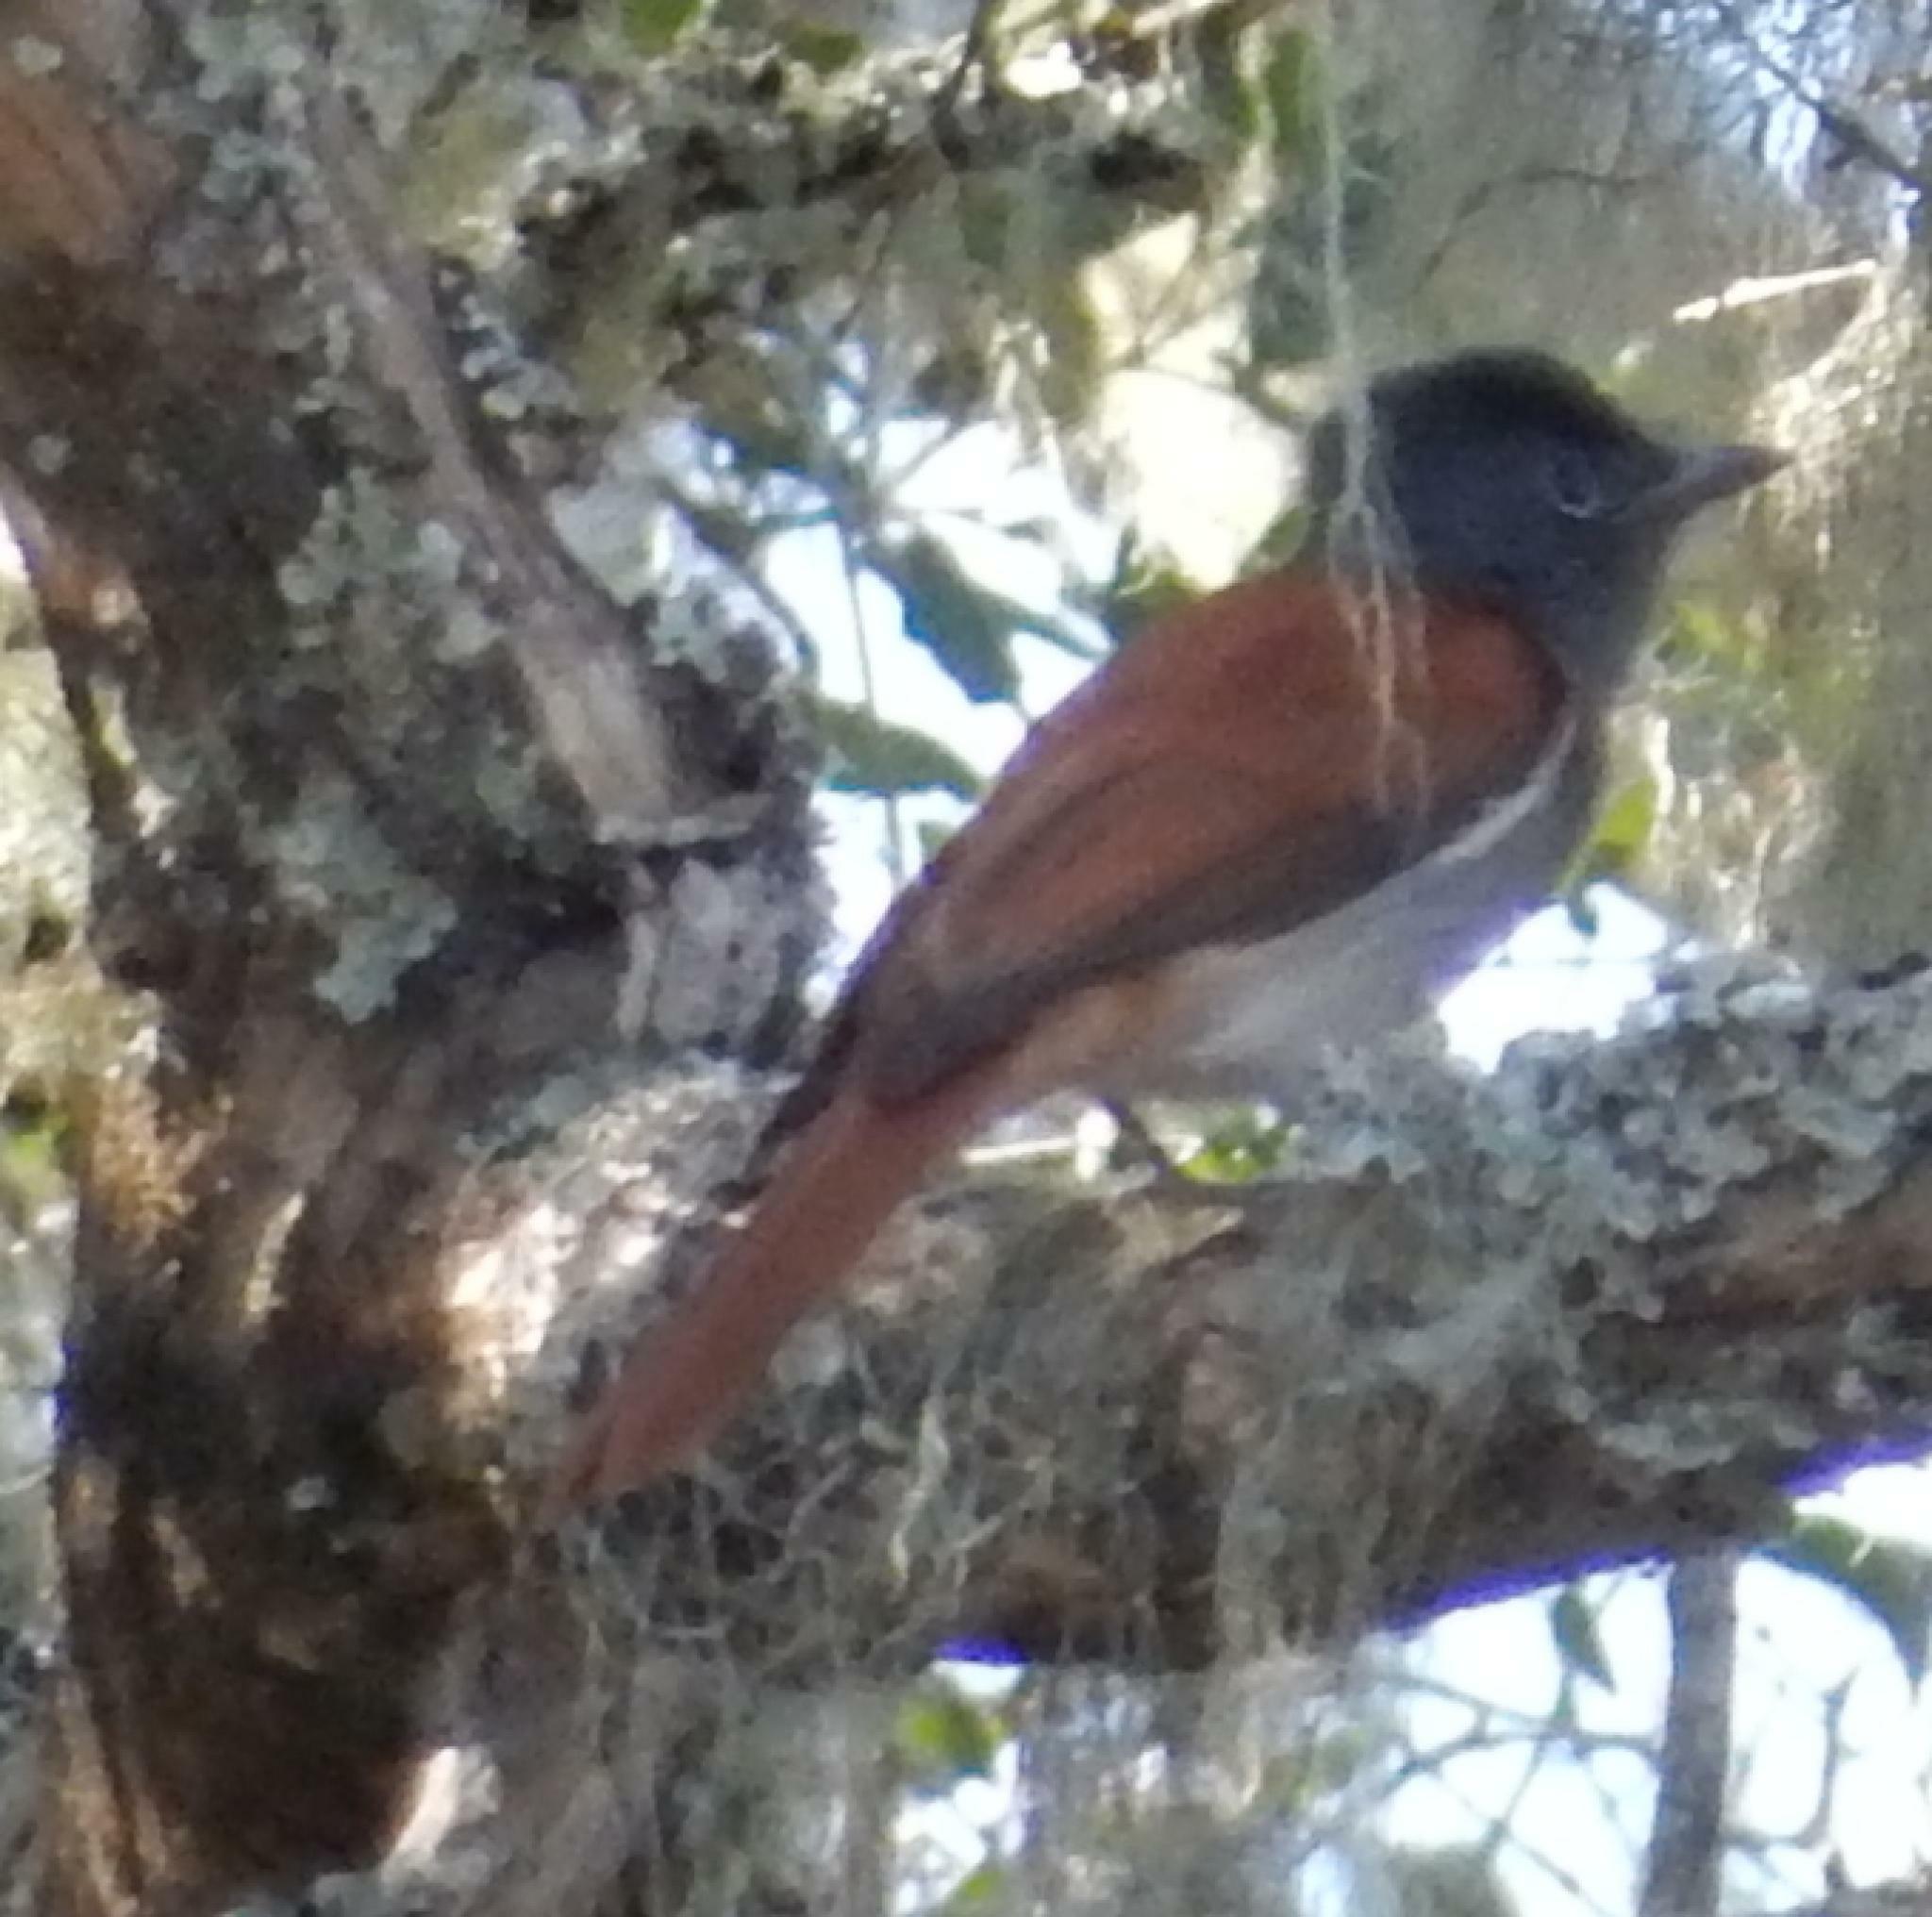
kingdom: Animalia
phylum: Chordata
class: Aves
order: Passeriformes
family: Monarchidae
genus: Terpsiphone
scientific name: Terpsiphone viridis
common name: African paradise flycatcher
